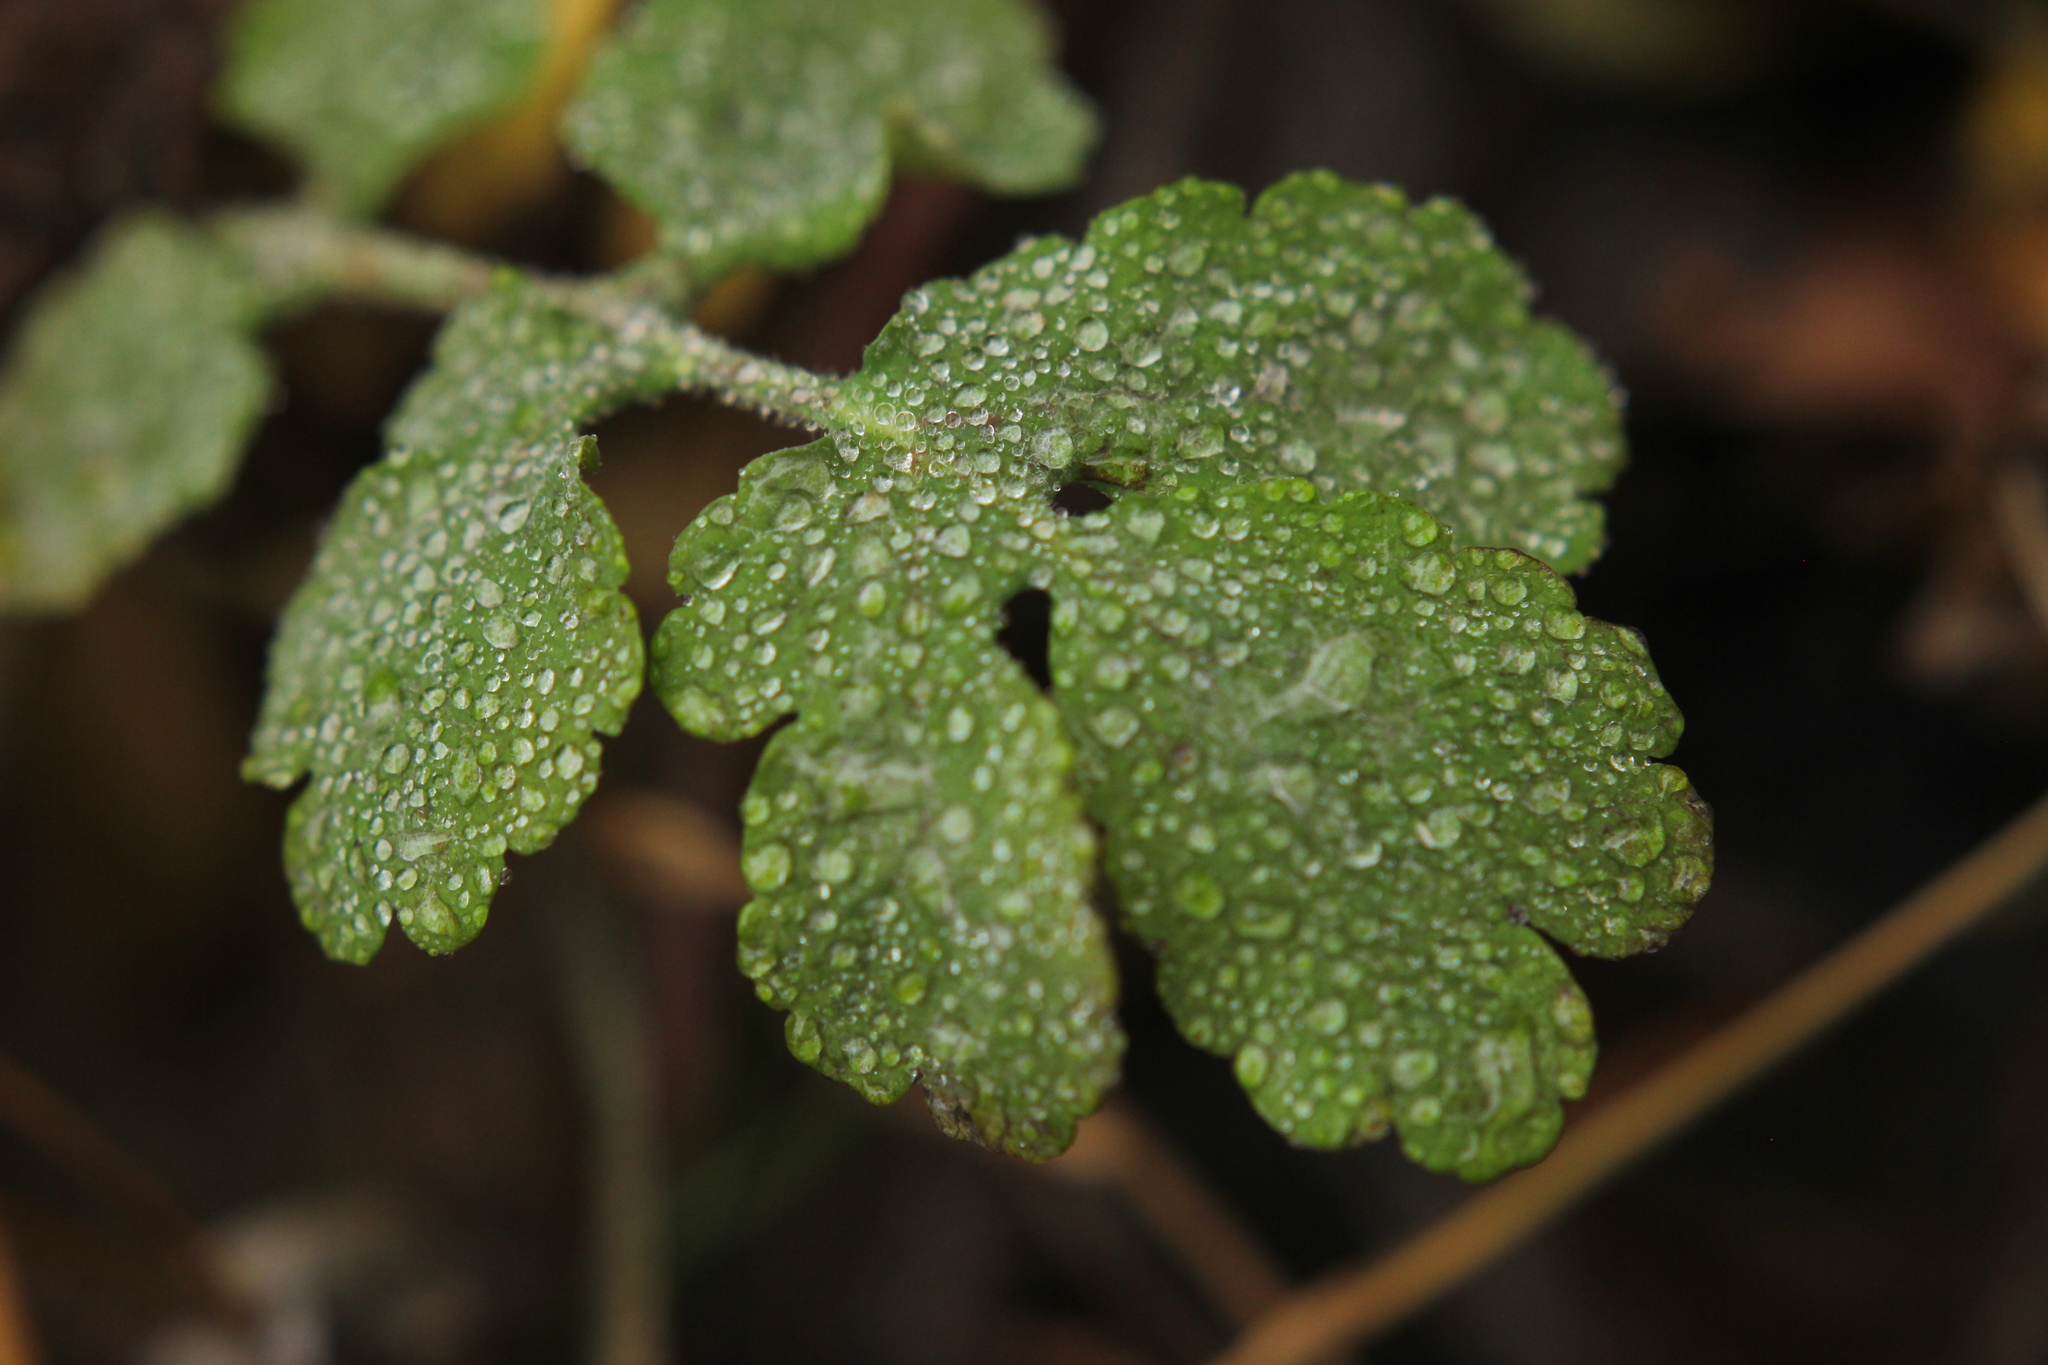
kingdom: Plantae
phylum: Tracheophyta
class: Magnoliopsida
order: Ranunculales
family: Papaveraceae
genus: Chelidonium
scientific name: Chelidonium majus
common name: Greater celandine
